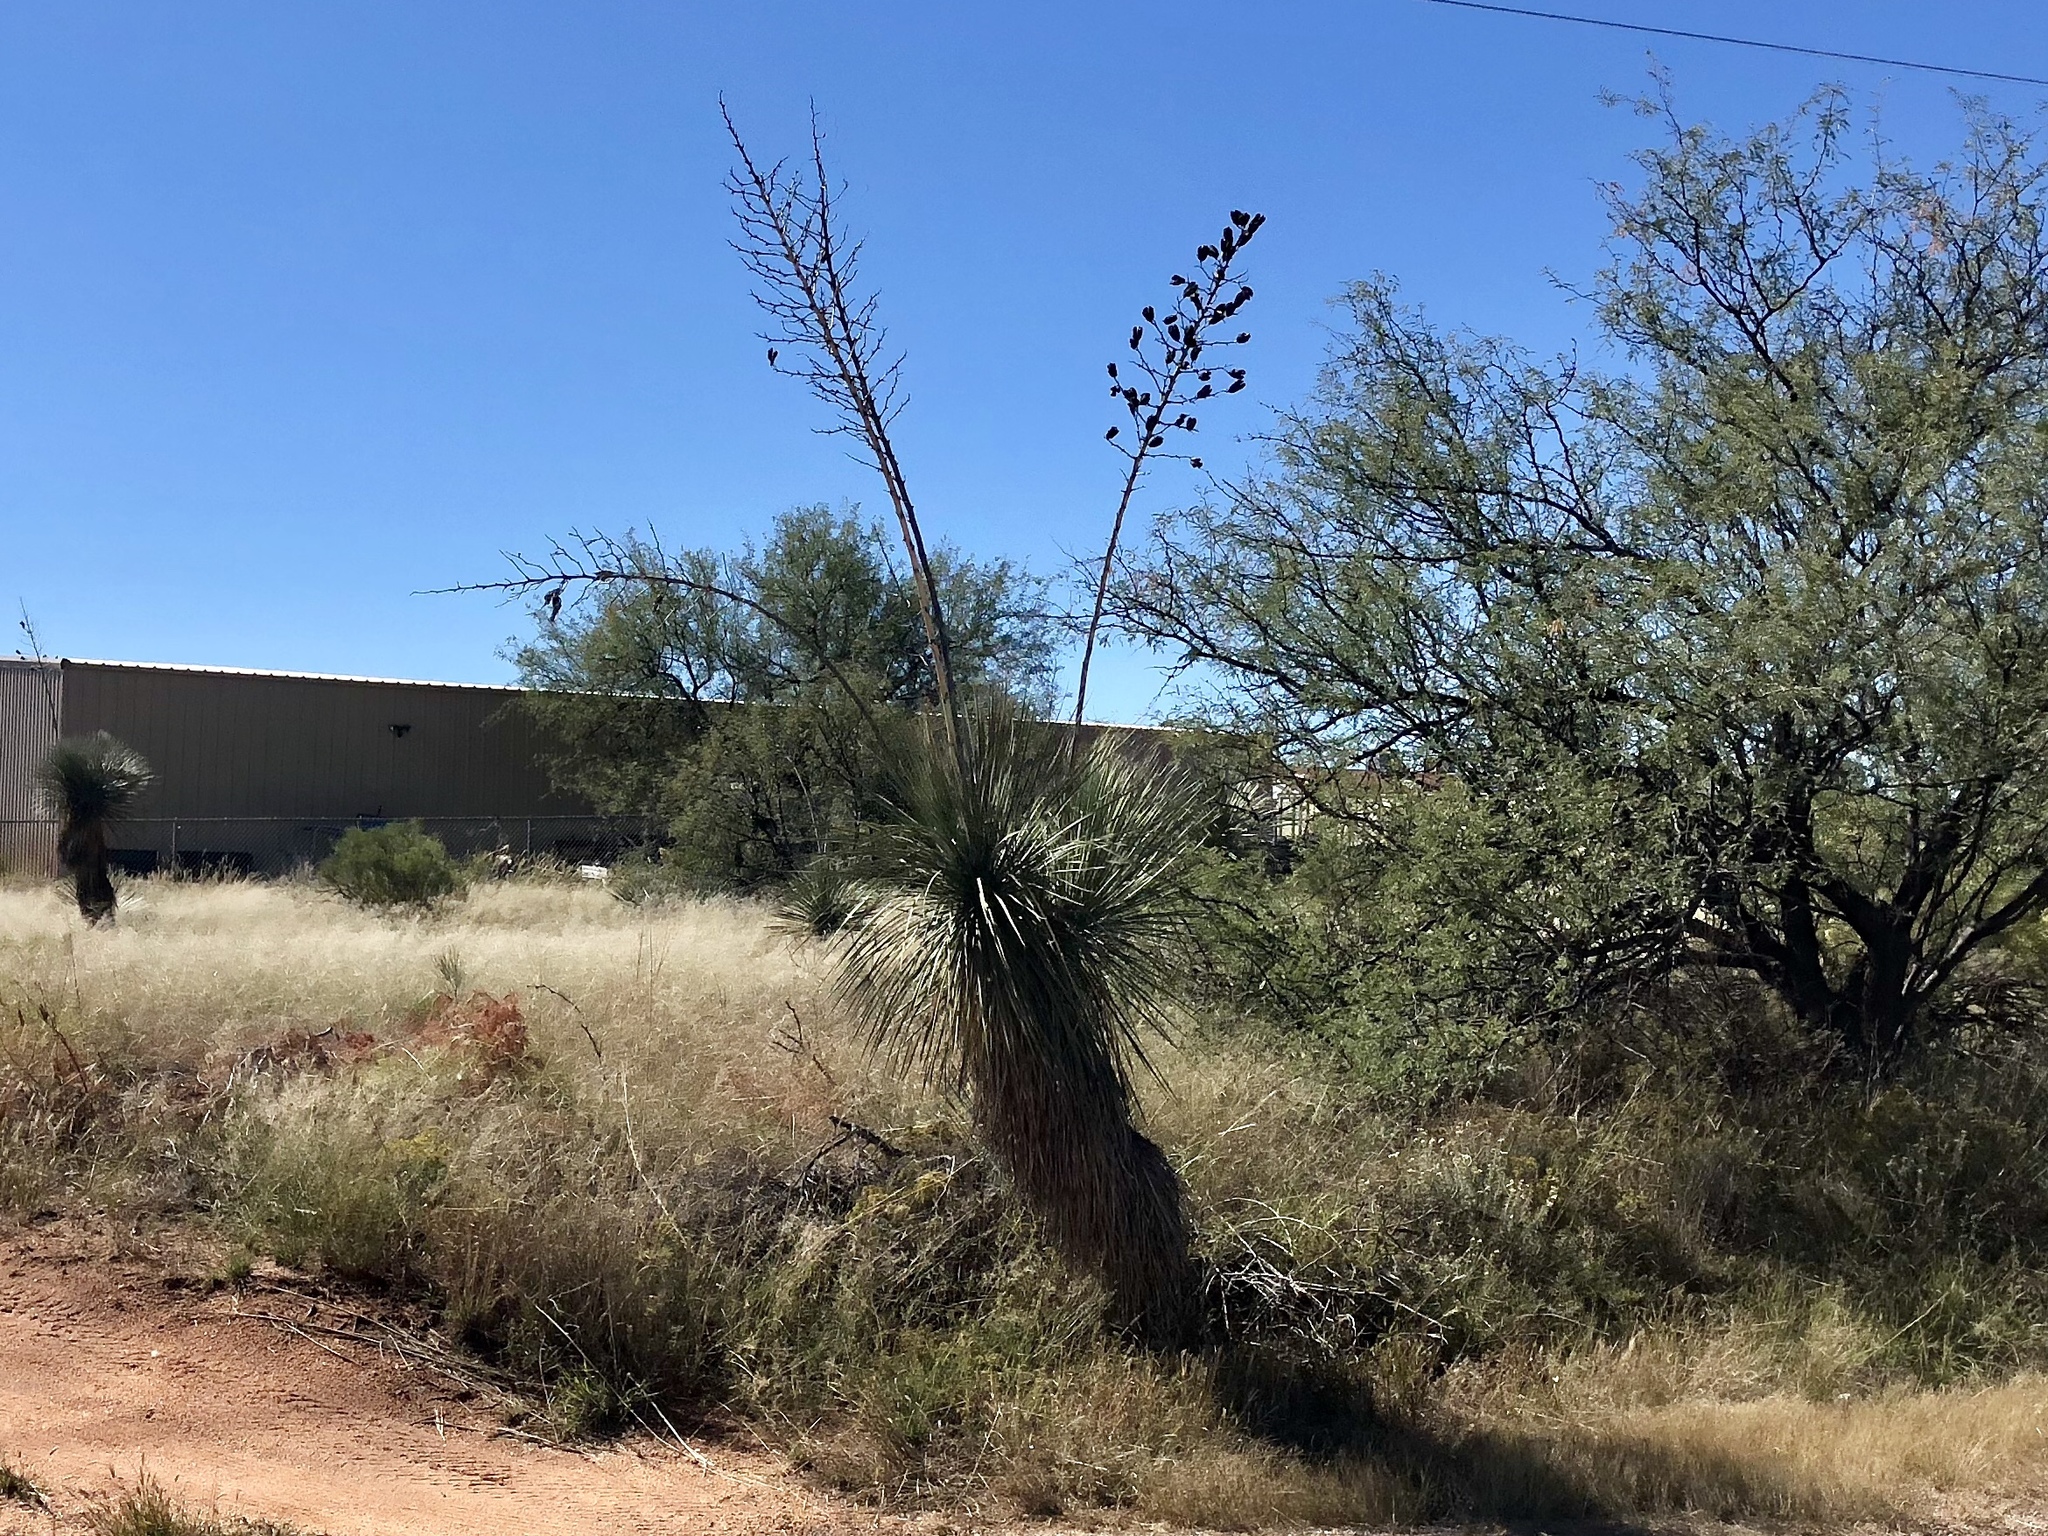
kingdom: Plantae
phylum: Tracheophyta
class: Liliopsida
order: Asparagales
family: Asparagaceae
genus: Yucca
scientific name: Yucca elata
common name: Palmella
